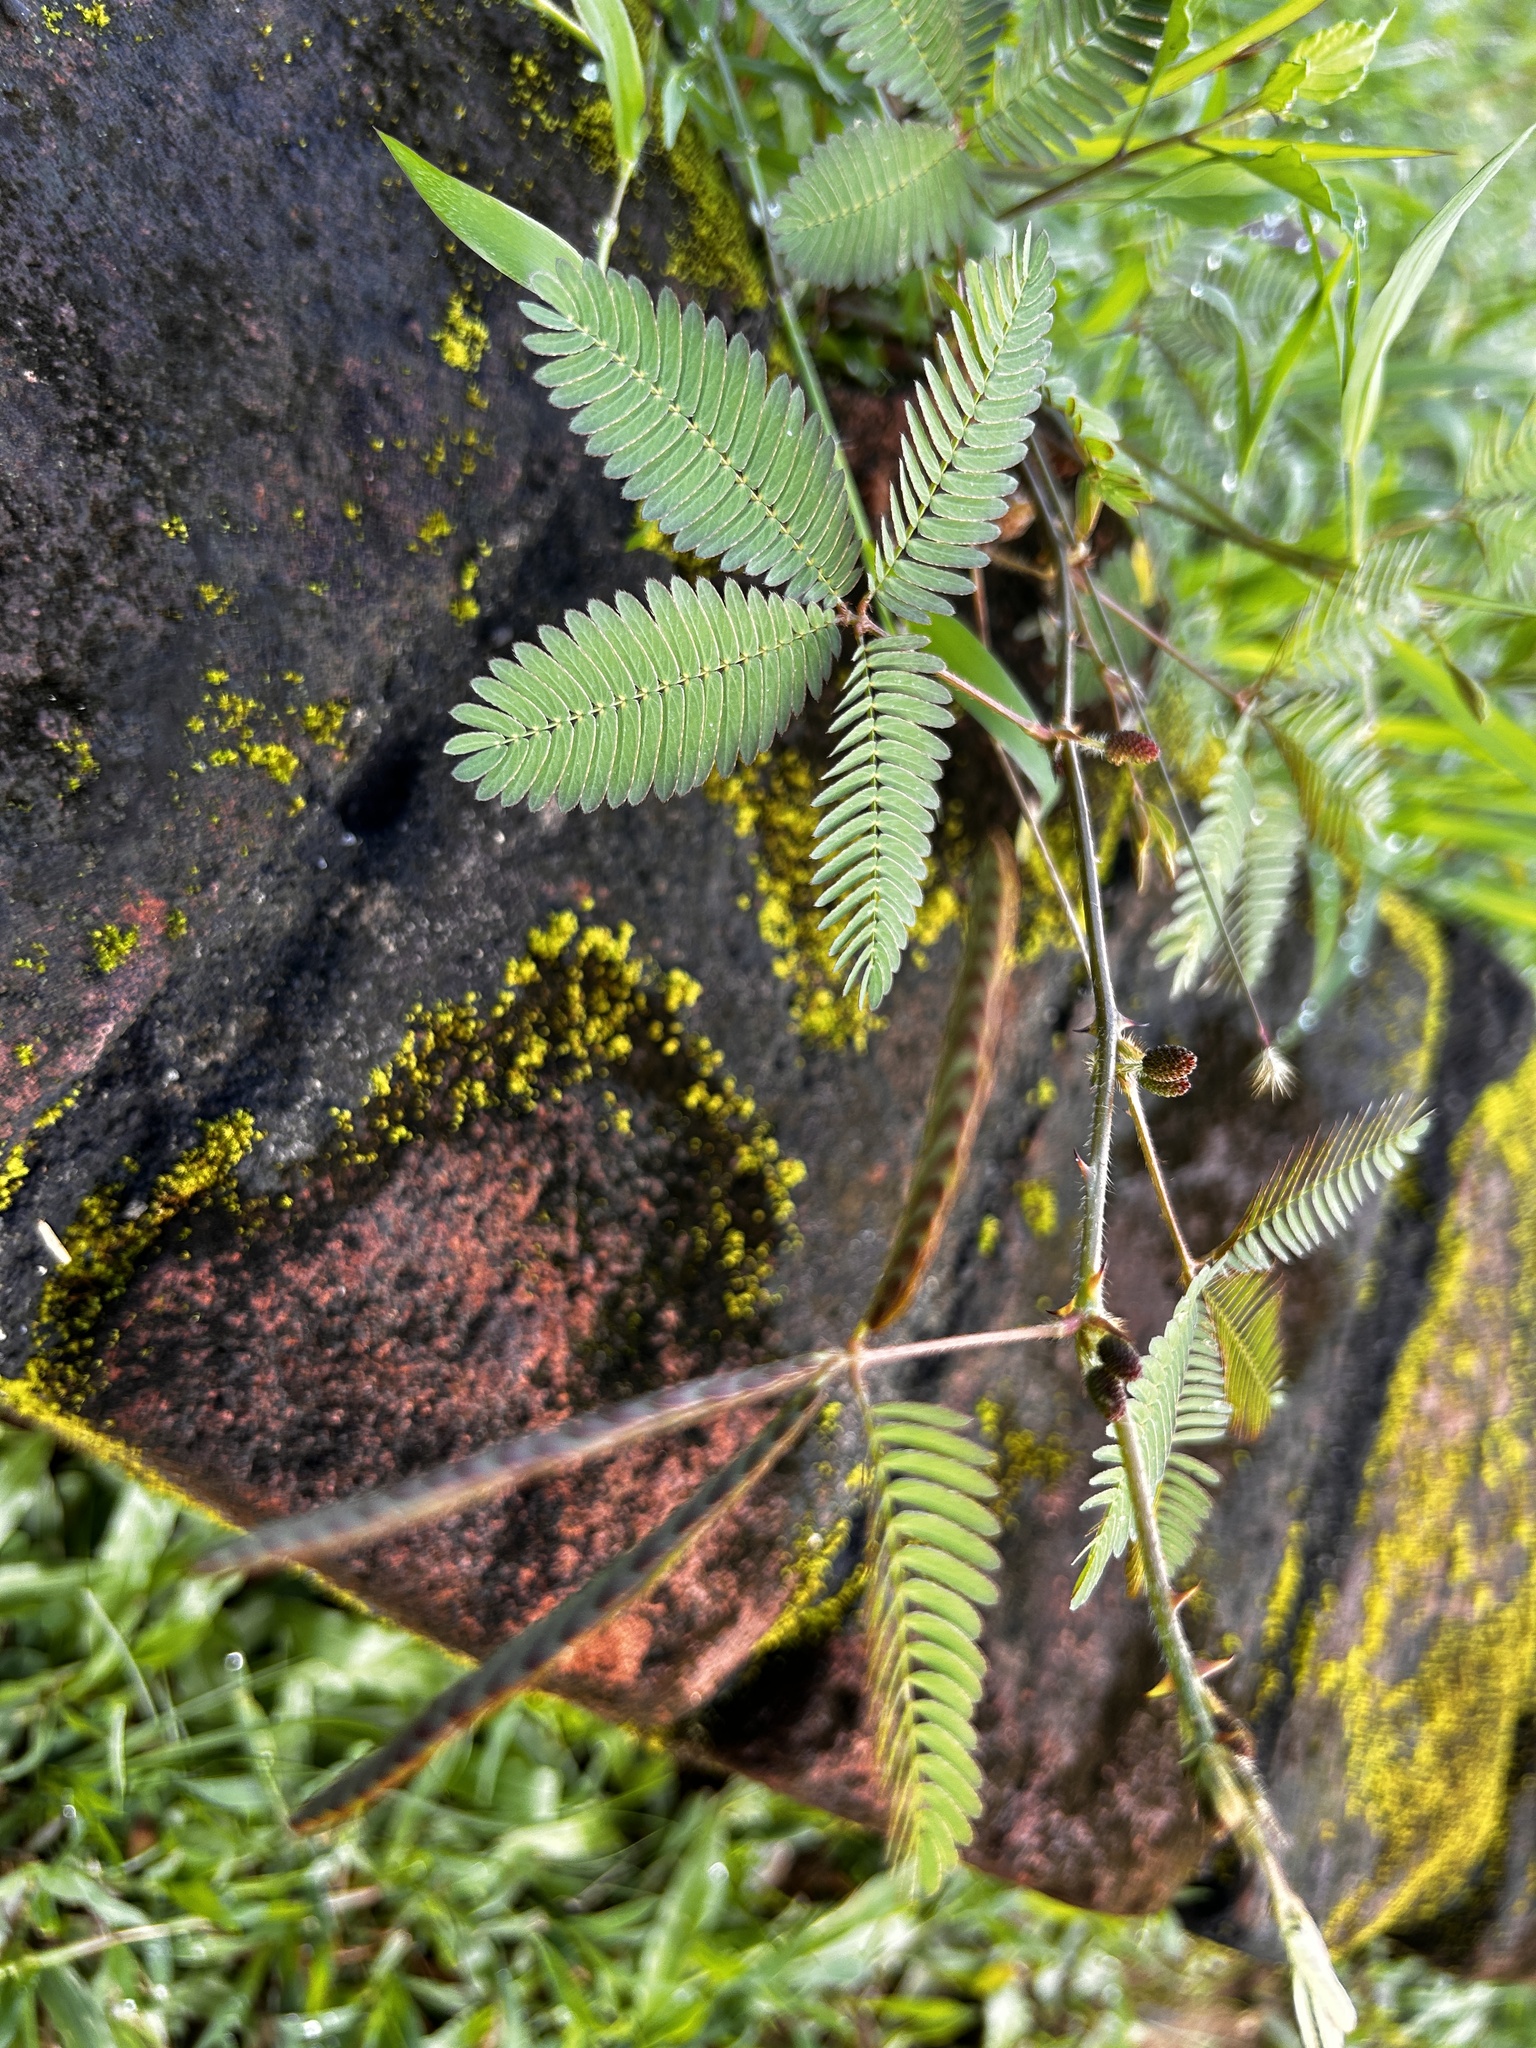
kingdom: Plantae
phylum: Tracheophyta
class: Magnoliopsida
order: Fabales
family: Fabaceae
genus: Mimosa
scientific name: Mimosa pudica
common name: Sensitive plant
